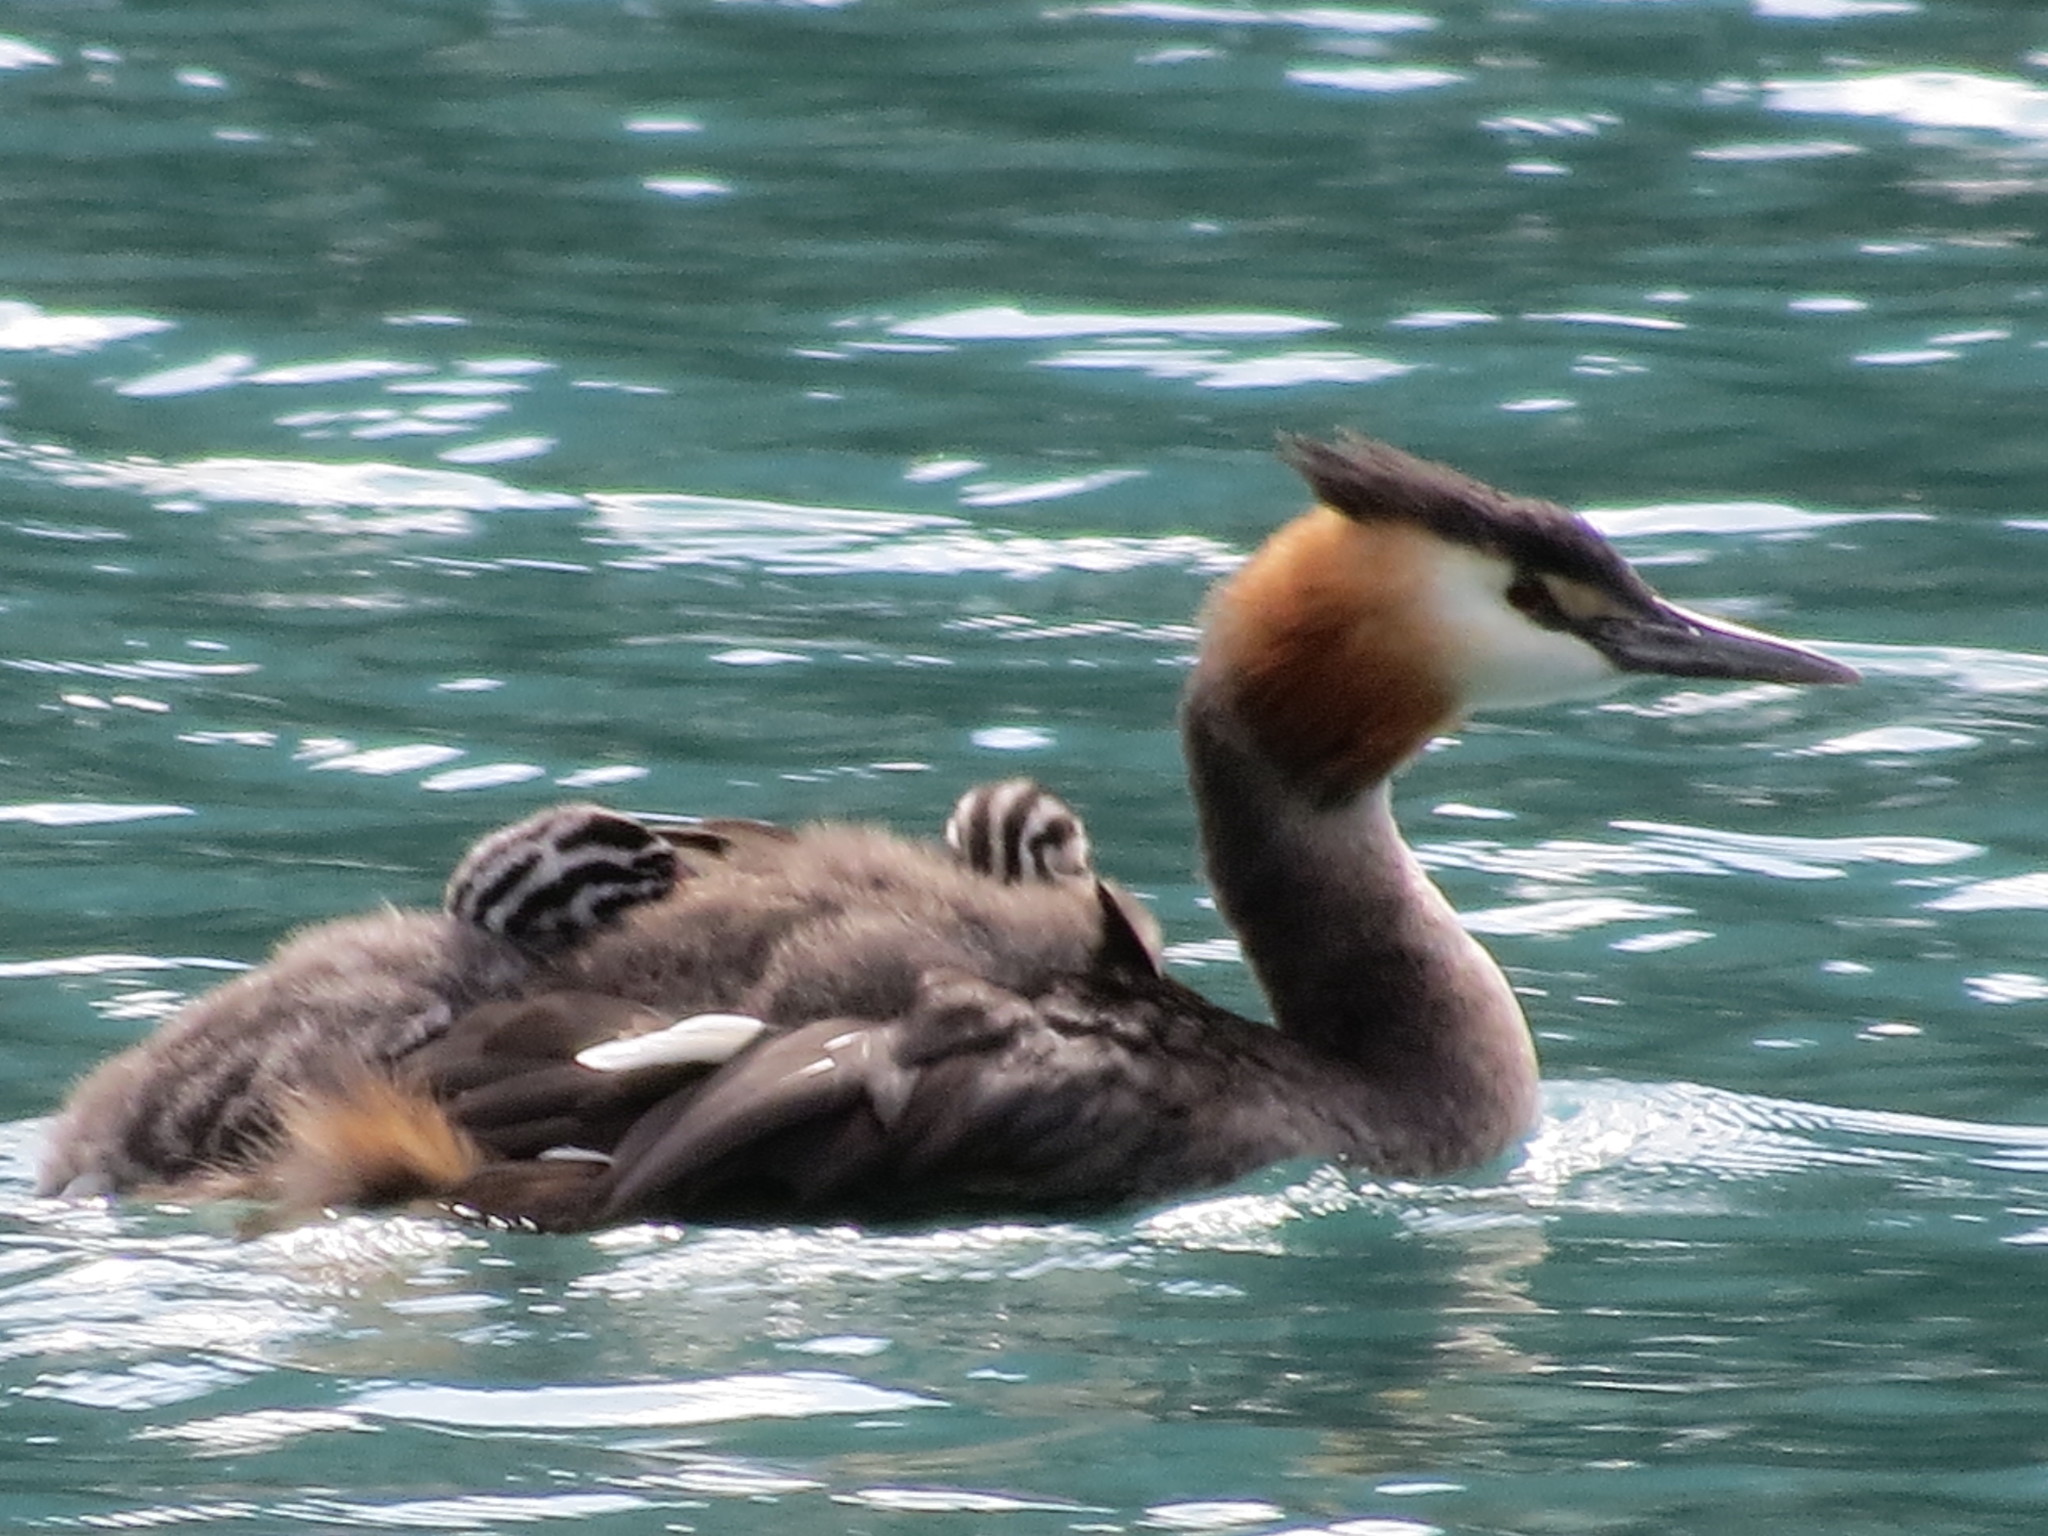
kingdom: Animalia
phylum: Chordata
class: Aves
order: Podicipediformes
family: Podicipedidae
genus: Podiceps
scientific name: Podiceps cristatus
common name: Great crested grebe
